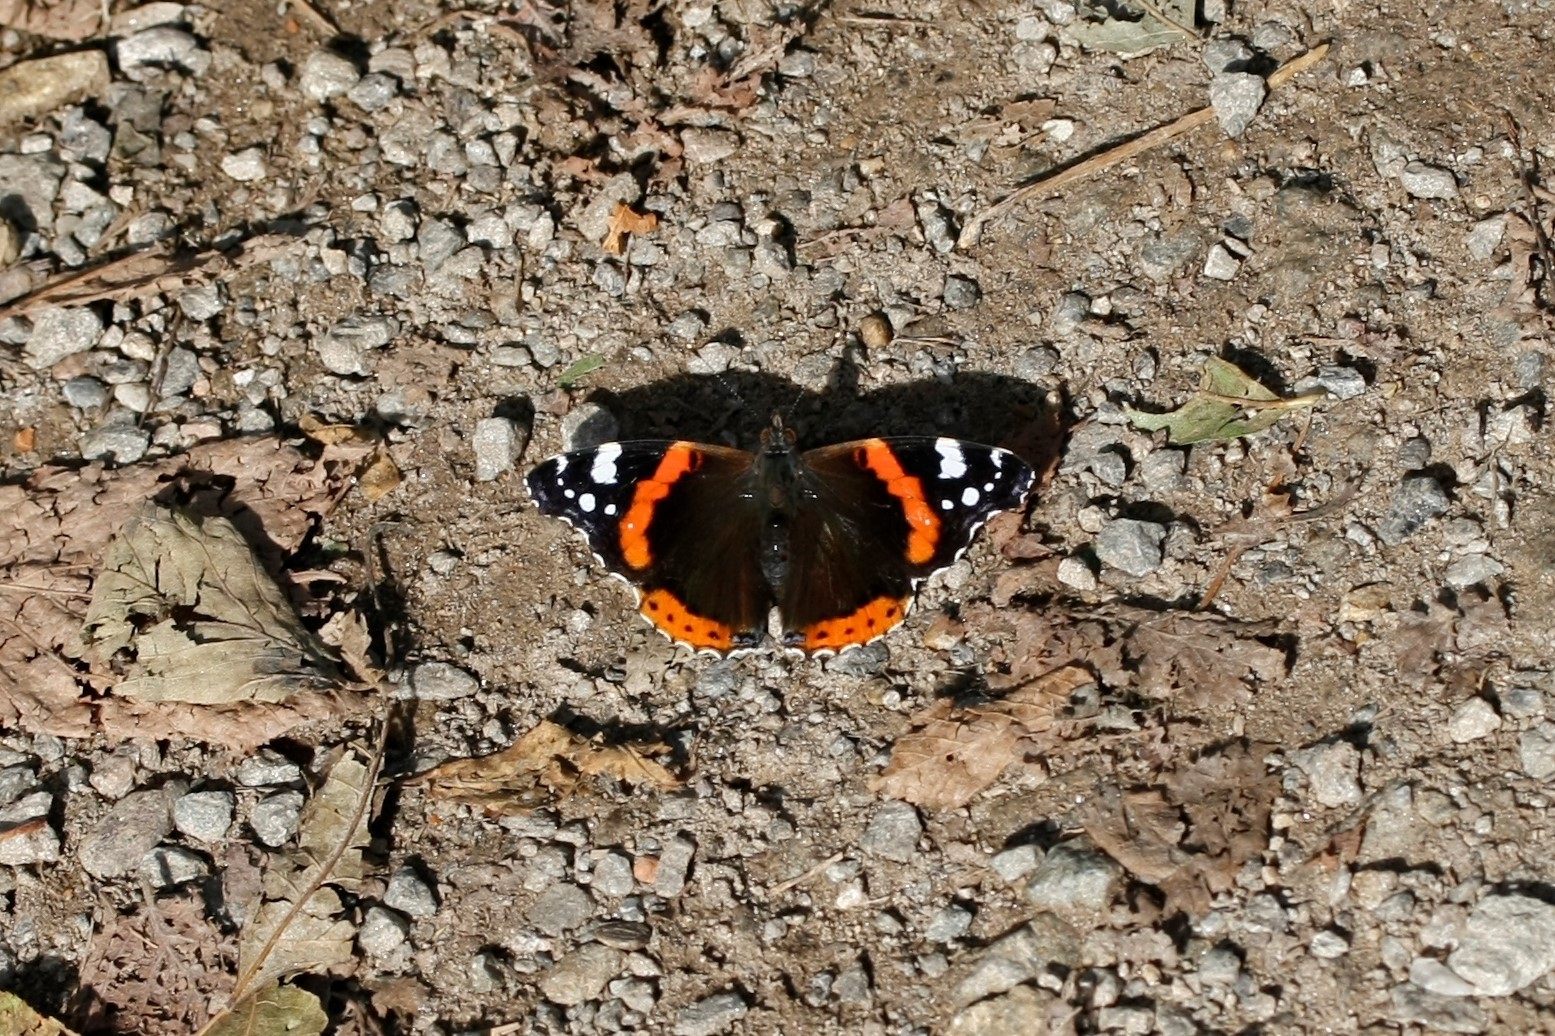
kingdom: Animalia
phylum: Arthropoda
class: Insecta
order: Lepidoptera
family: Nymphalidae
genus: Vanessa
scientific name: Vanessa atalanta
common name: Red admiral
